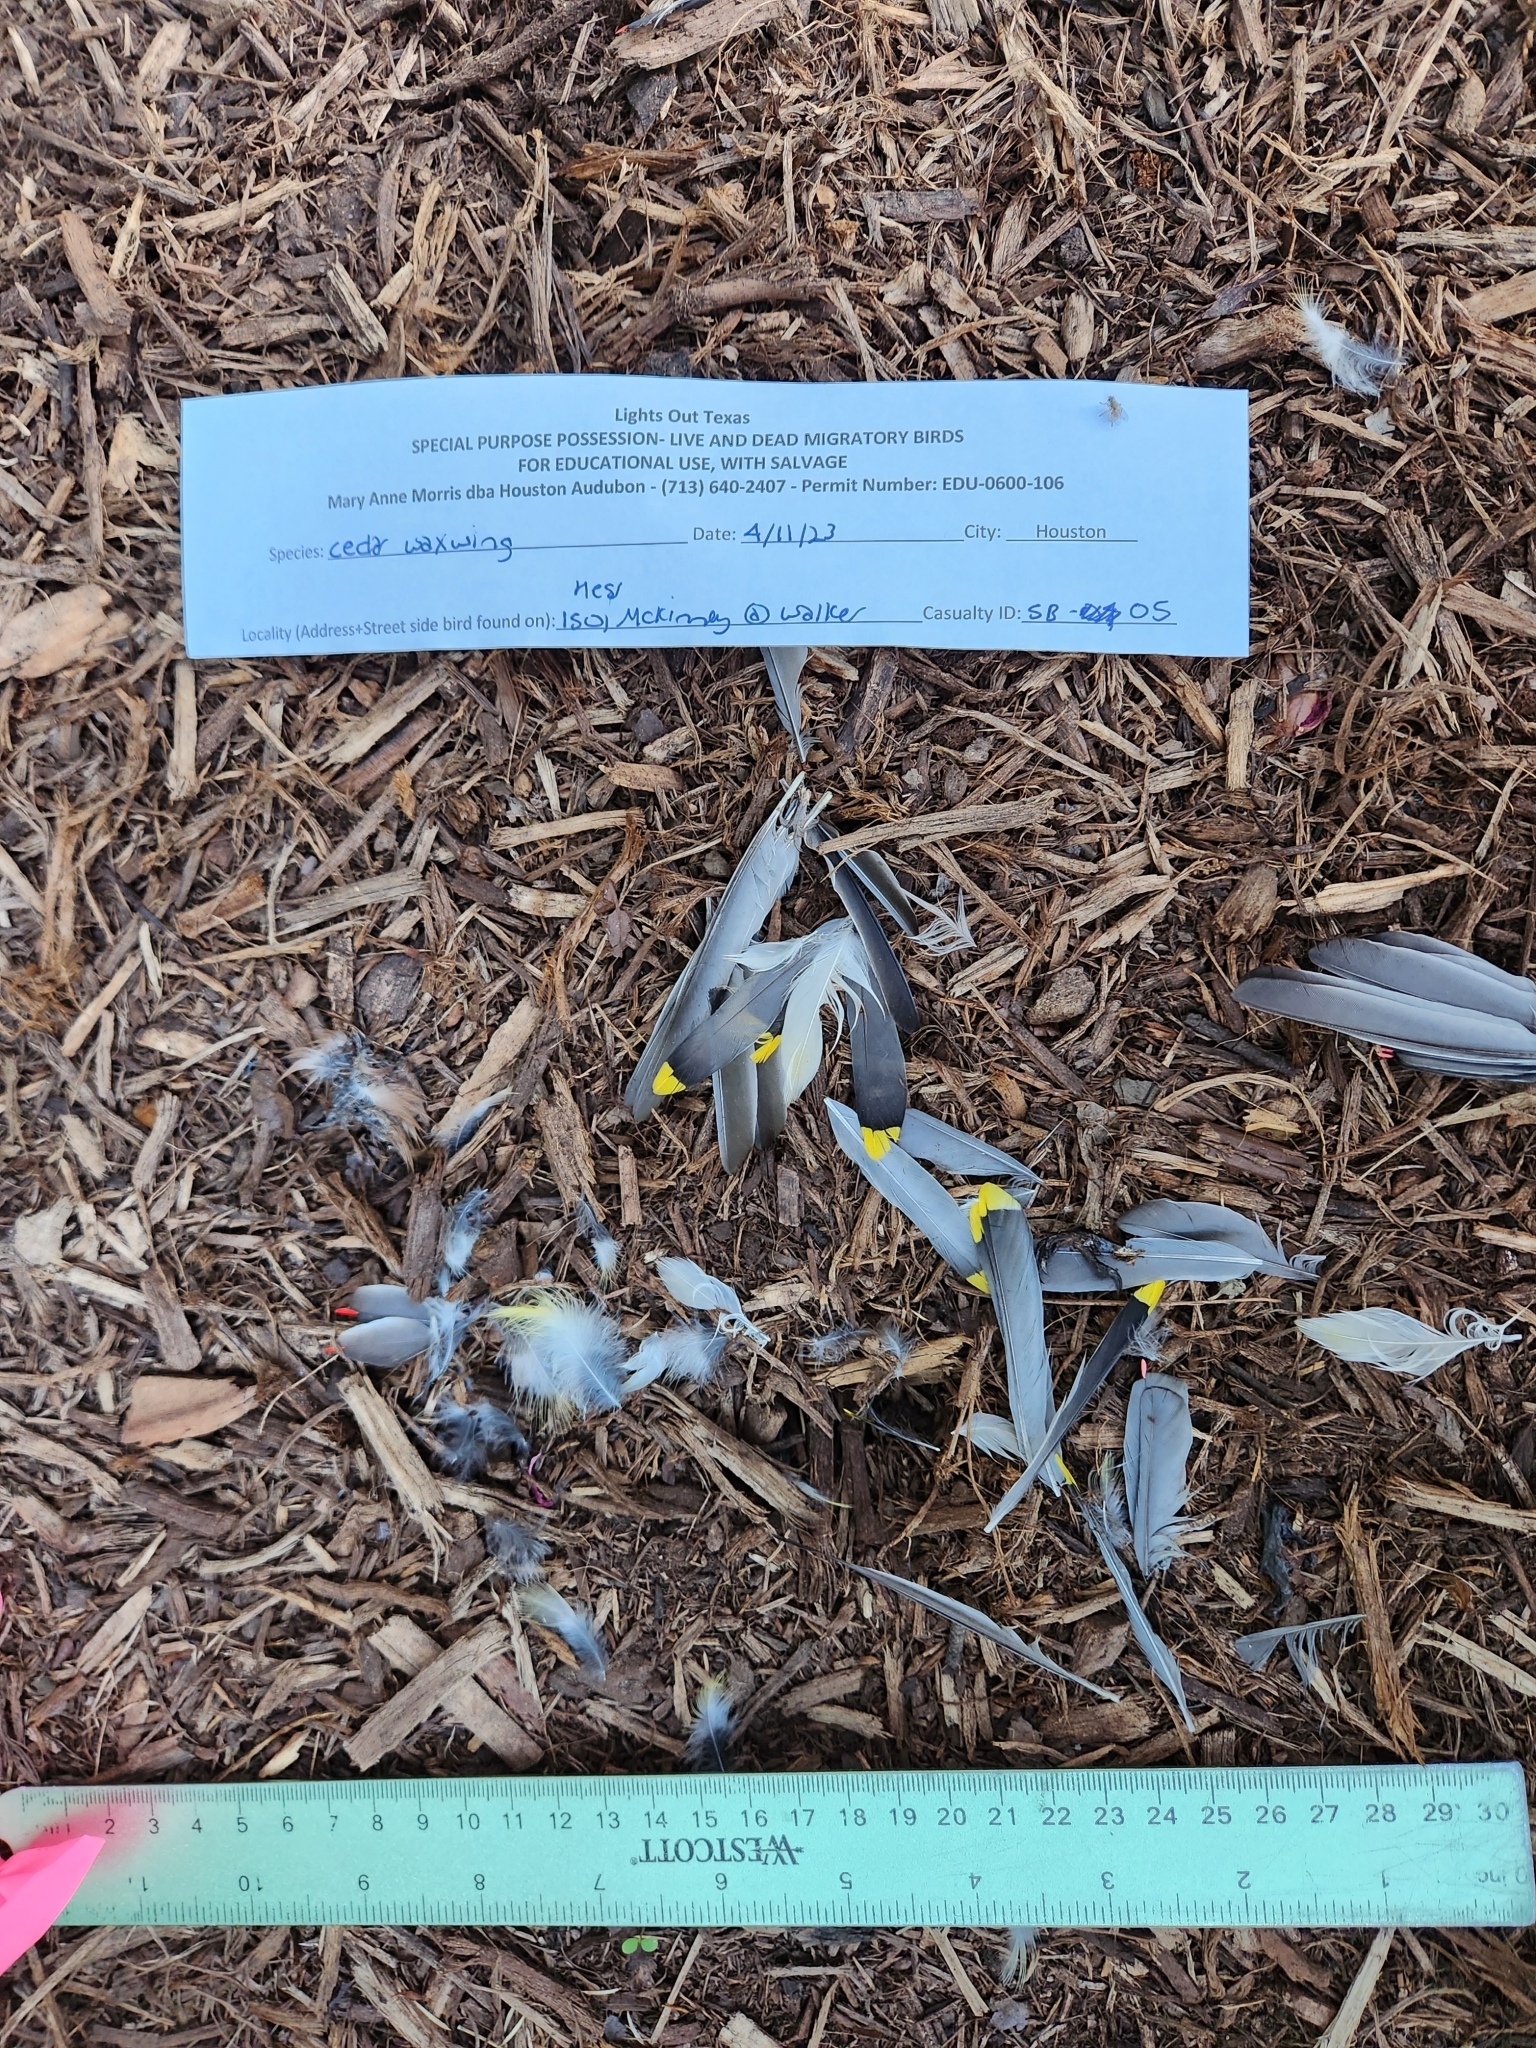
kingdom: Animalia
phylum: Chordata
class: Aves
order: Passeriformes
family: Bombycillidae
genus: Bombycilla
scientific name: Bombycilla cedrorum
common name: Cedar waxwing
